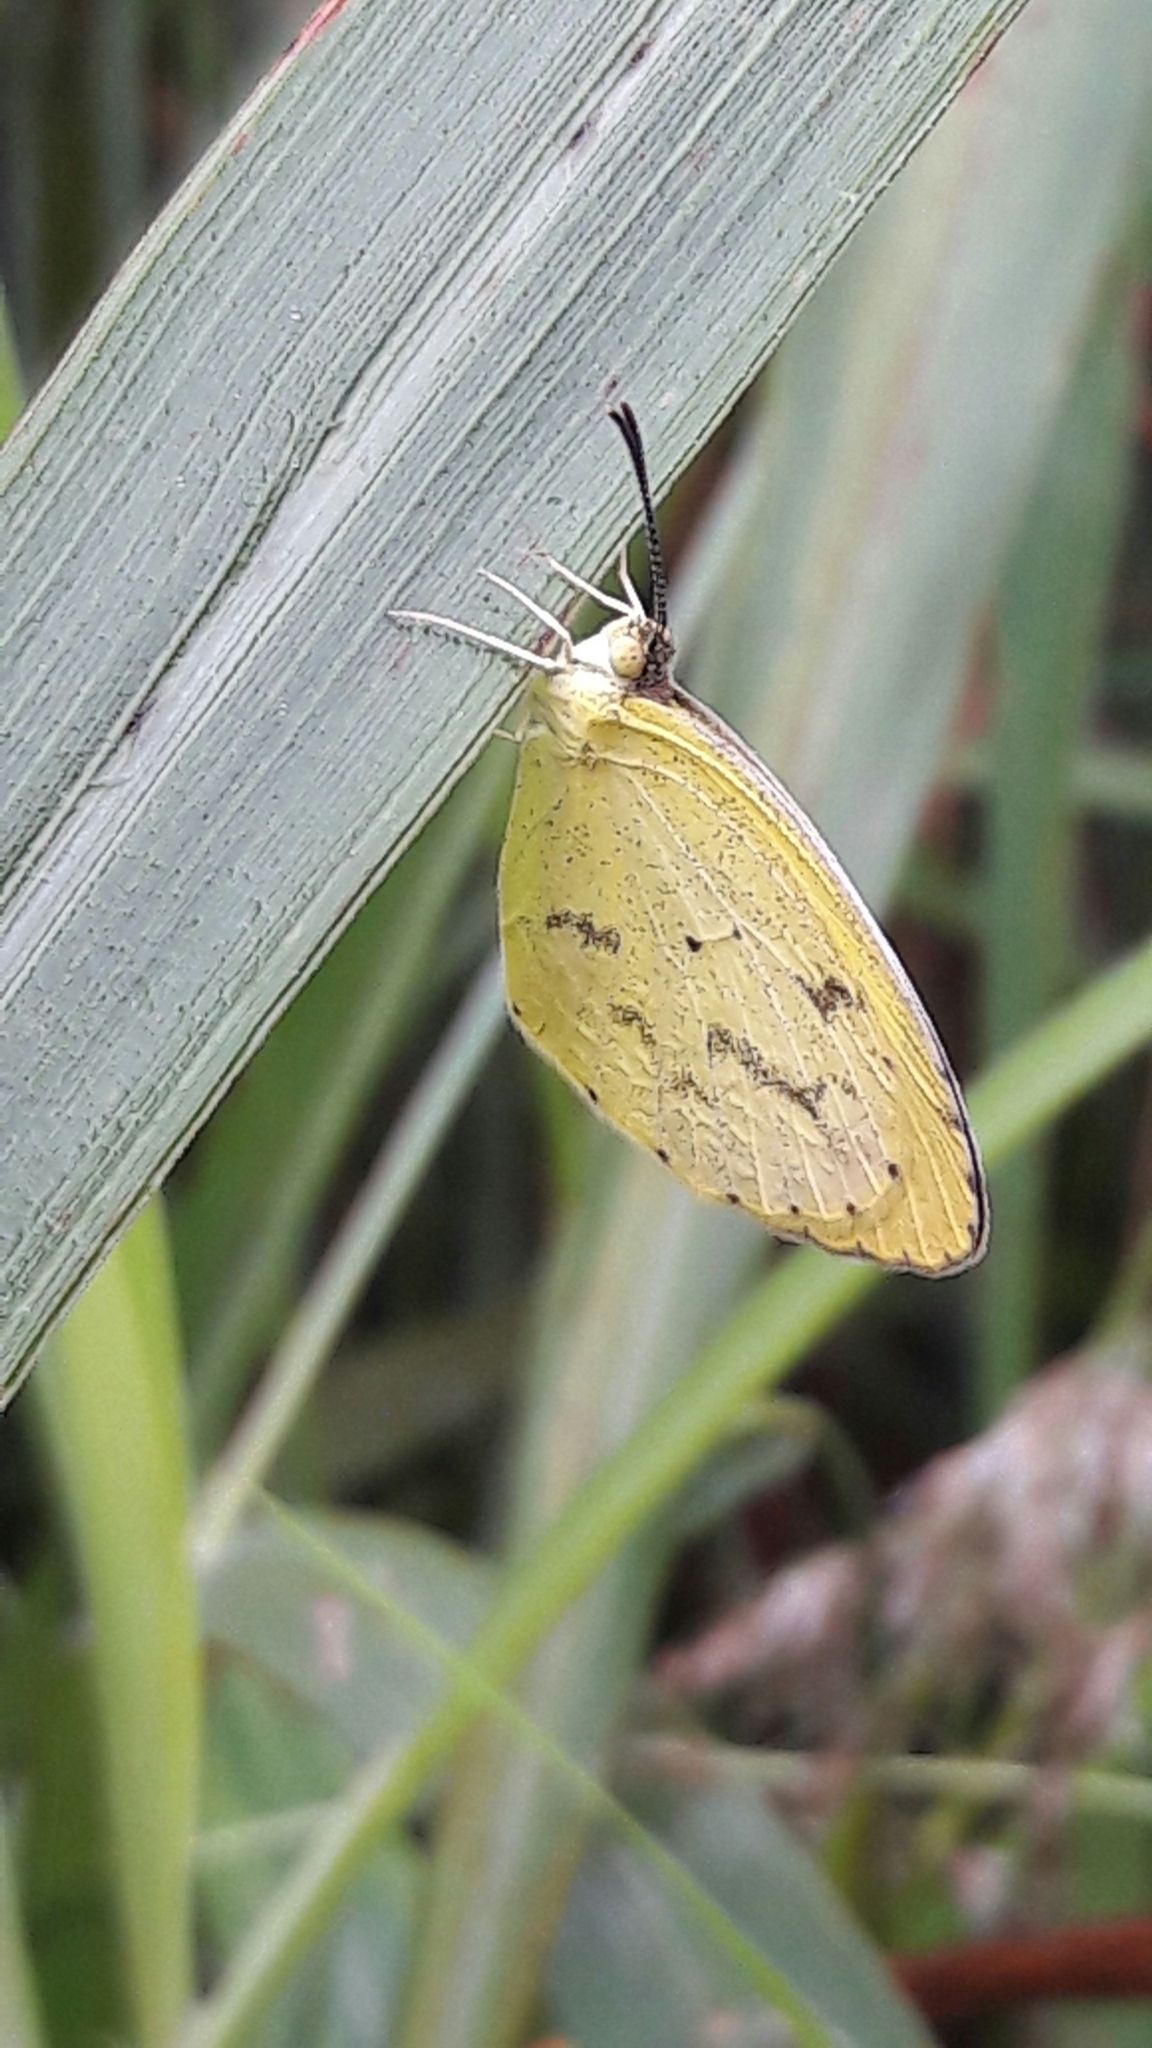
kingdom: Animalia
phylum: Arthropoda
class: Insecta
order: Lepidoptera
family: Pieridae
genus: Eurema
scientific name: Eurema elathea
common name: Banded yellow
